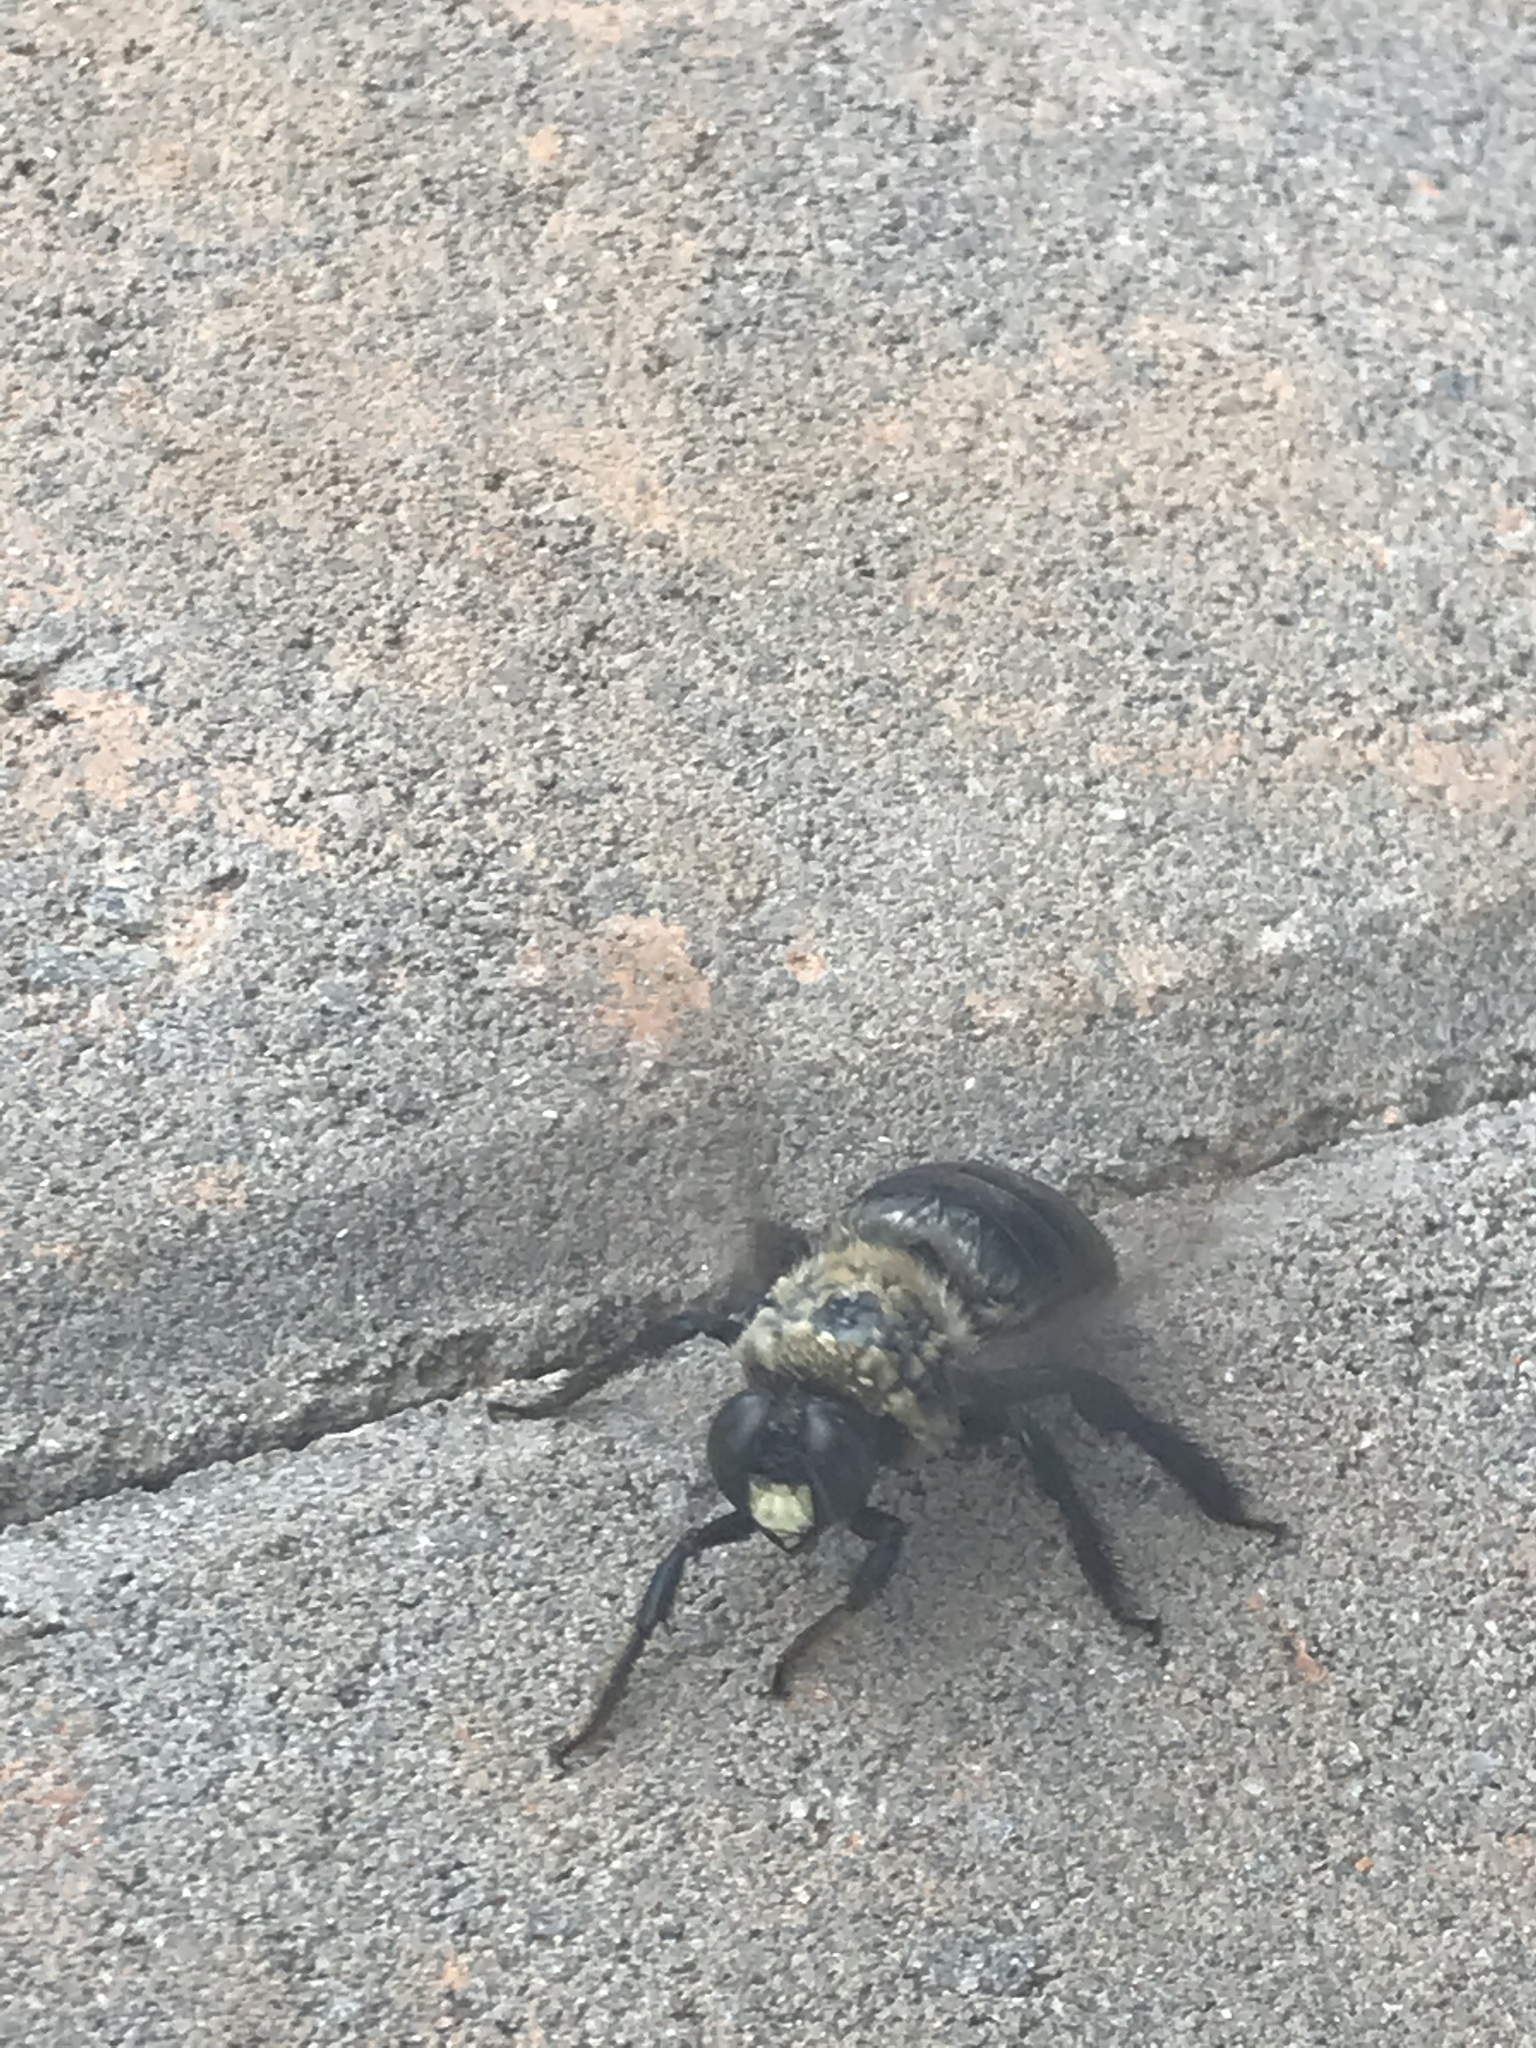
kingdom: Animalia
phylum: Arthropoda
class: Insecta
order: Hymenoptera
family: Apidae
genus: Xylocopa
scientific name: Xylocopa virginica
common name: Carpenter bee
